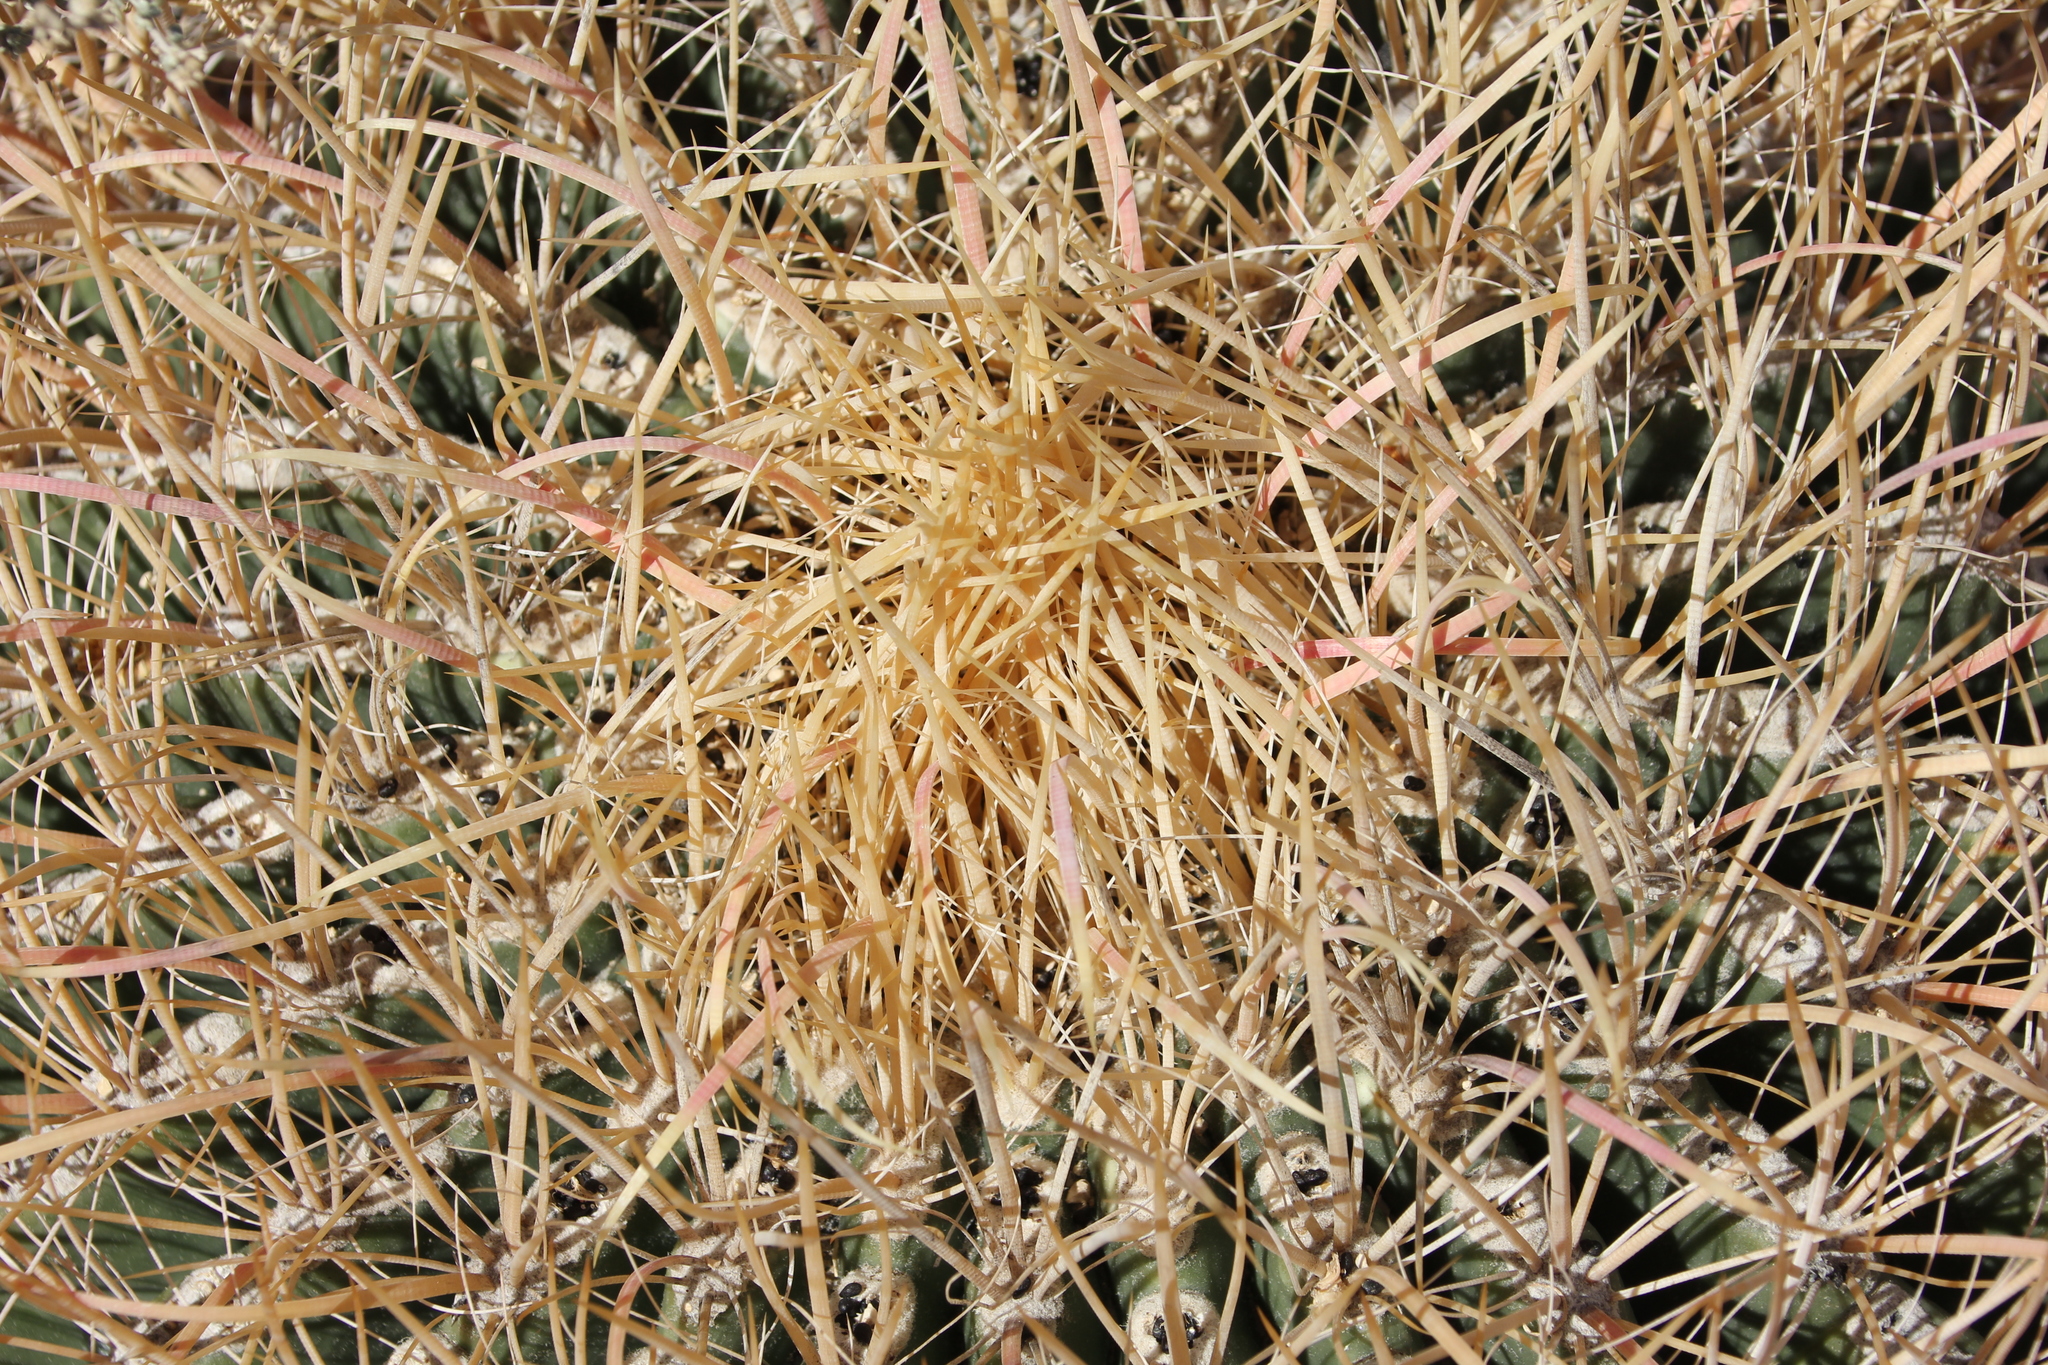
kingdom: Plantae
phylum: Tracheophyta
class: Magnoliopsida
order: Caryophyllales
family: Cactaceae
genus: Ferocactus
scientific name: Ferocactus cylindraceus
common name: California barrel cactus
